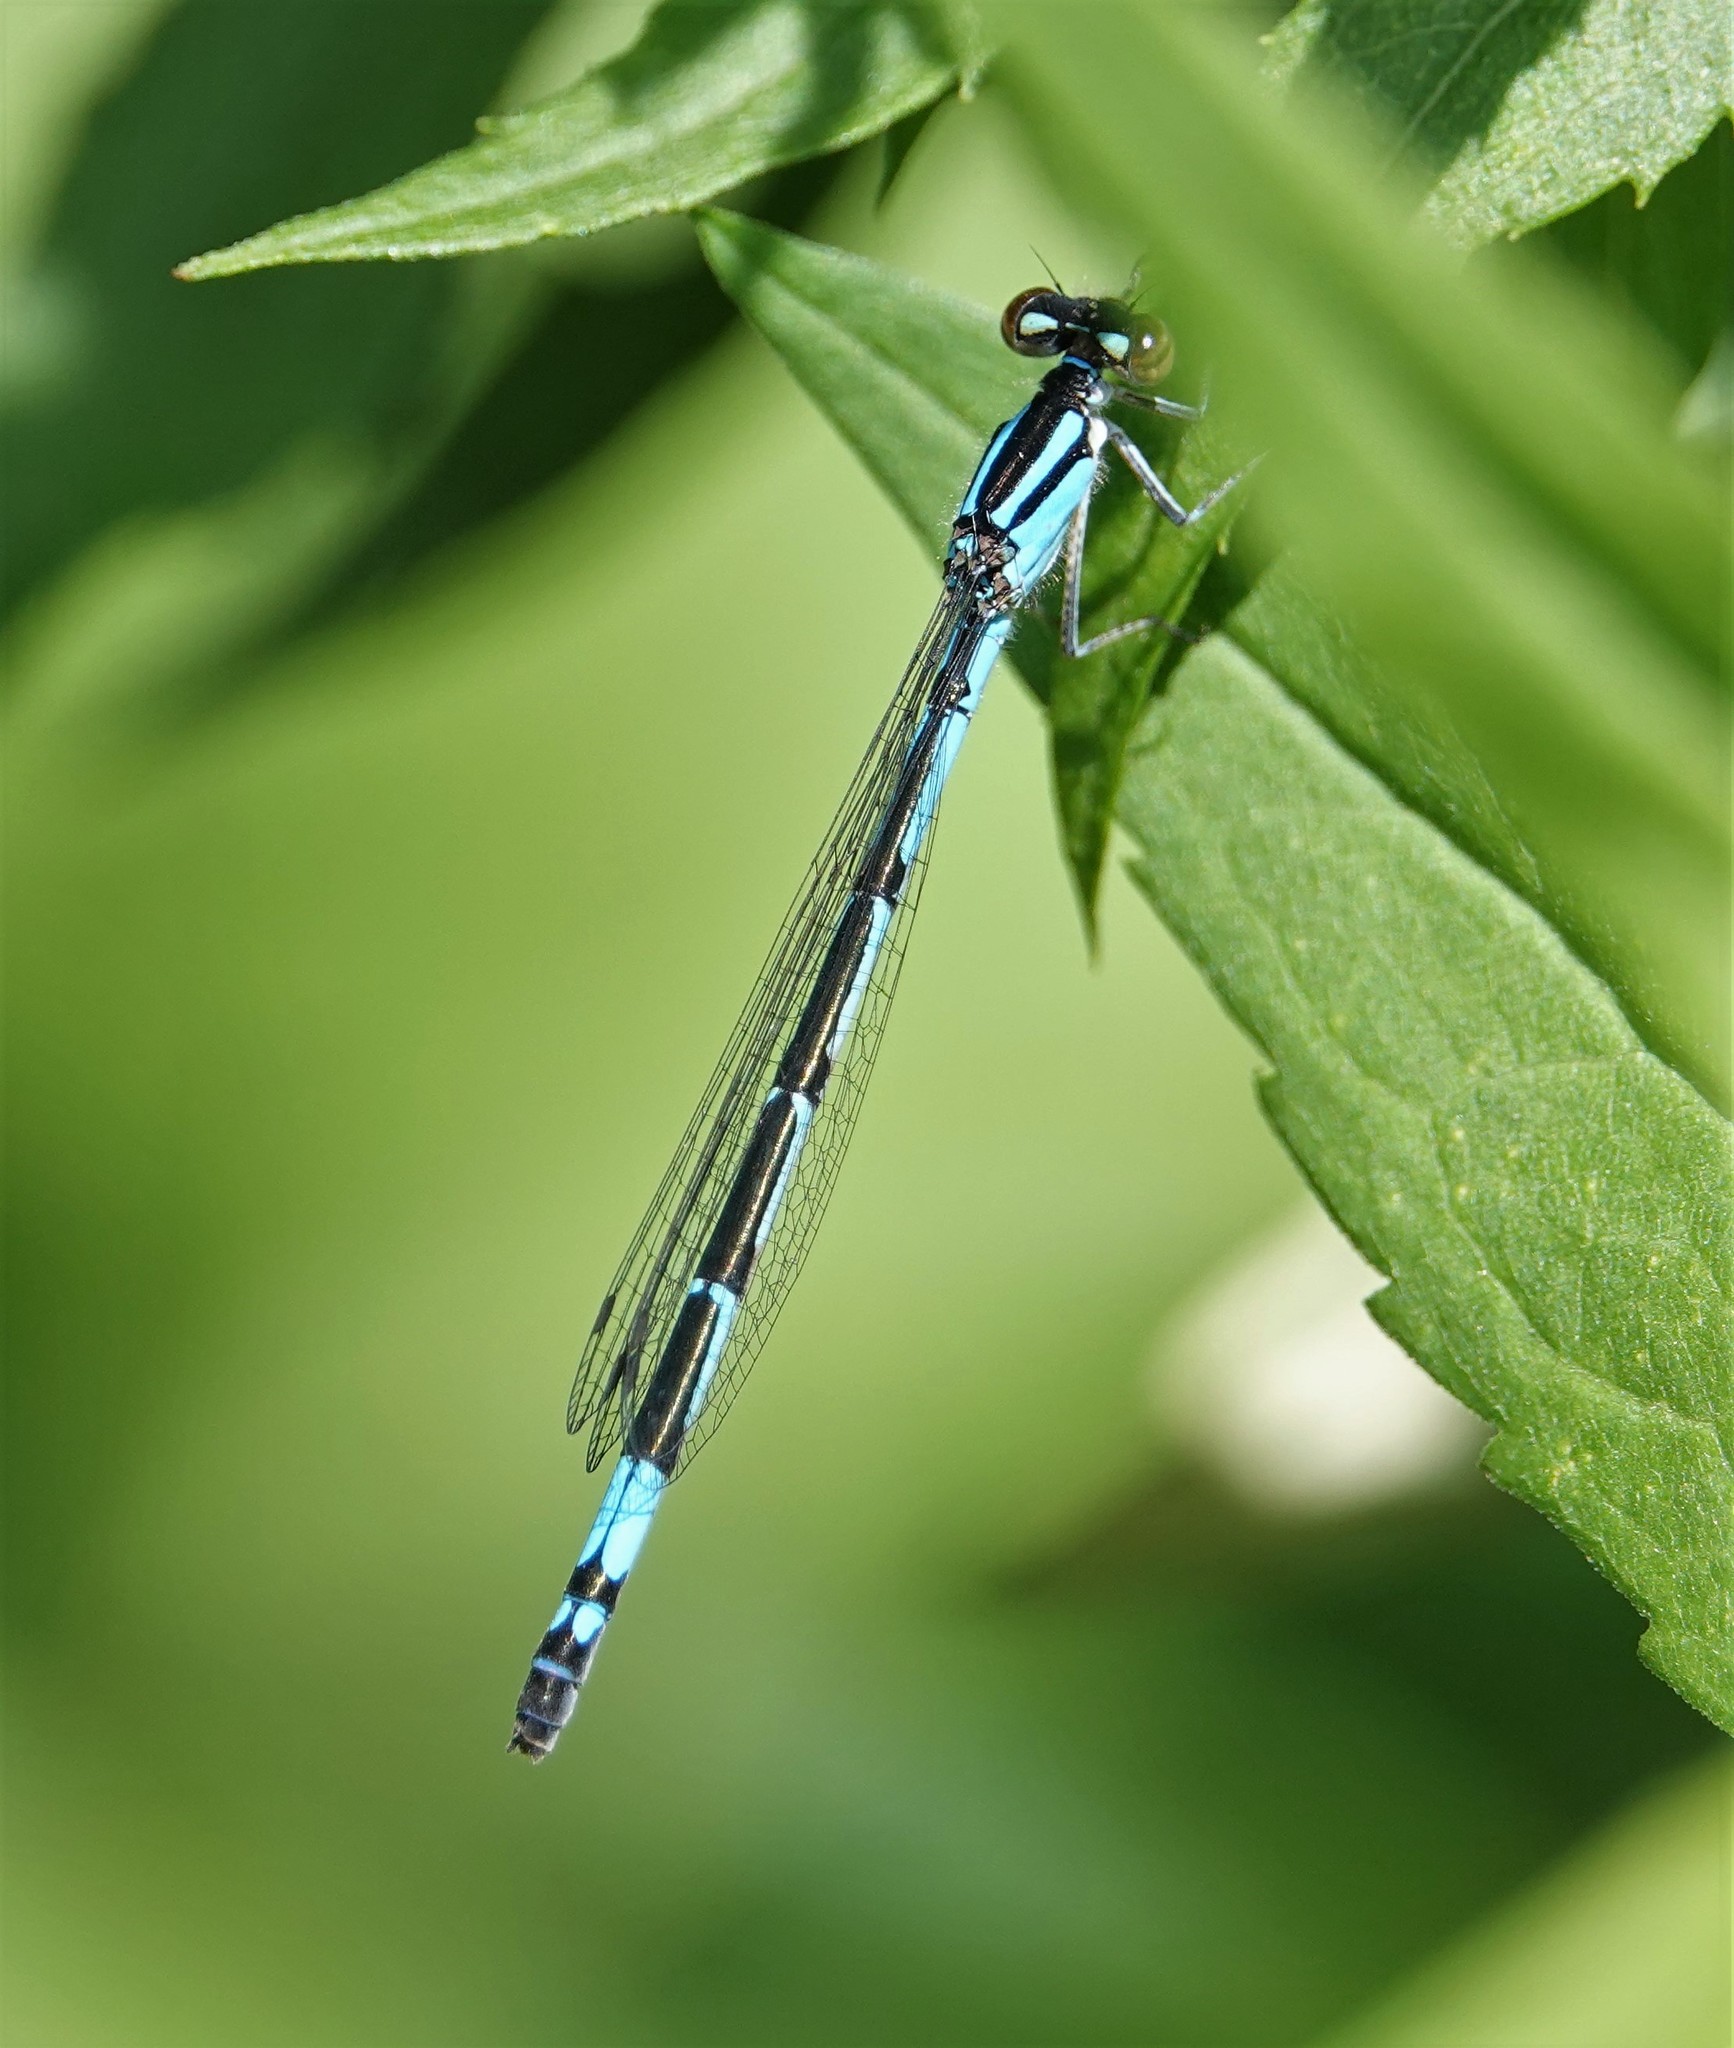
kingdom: Animalia
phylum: Arthropoda
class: Insecta
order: Odonata
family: Coenagrionidae
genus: Enallagma
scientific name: Enallagma aspersum
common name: Azure bluet
